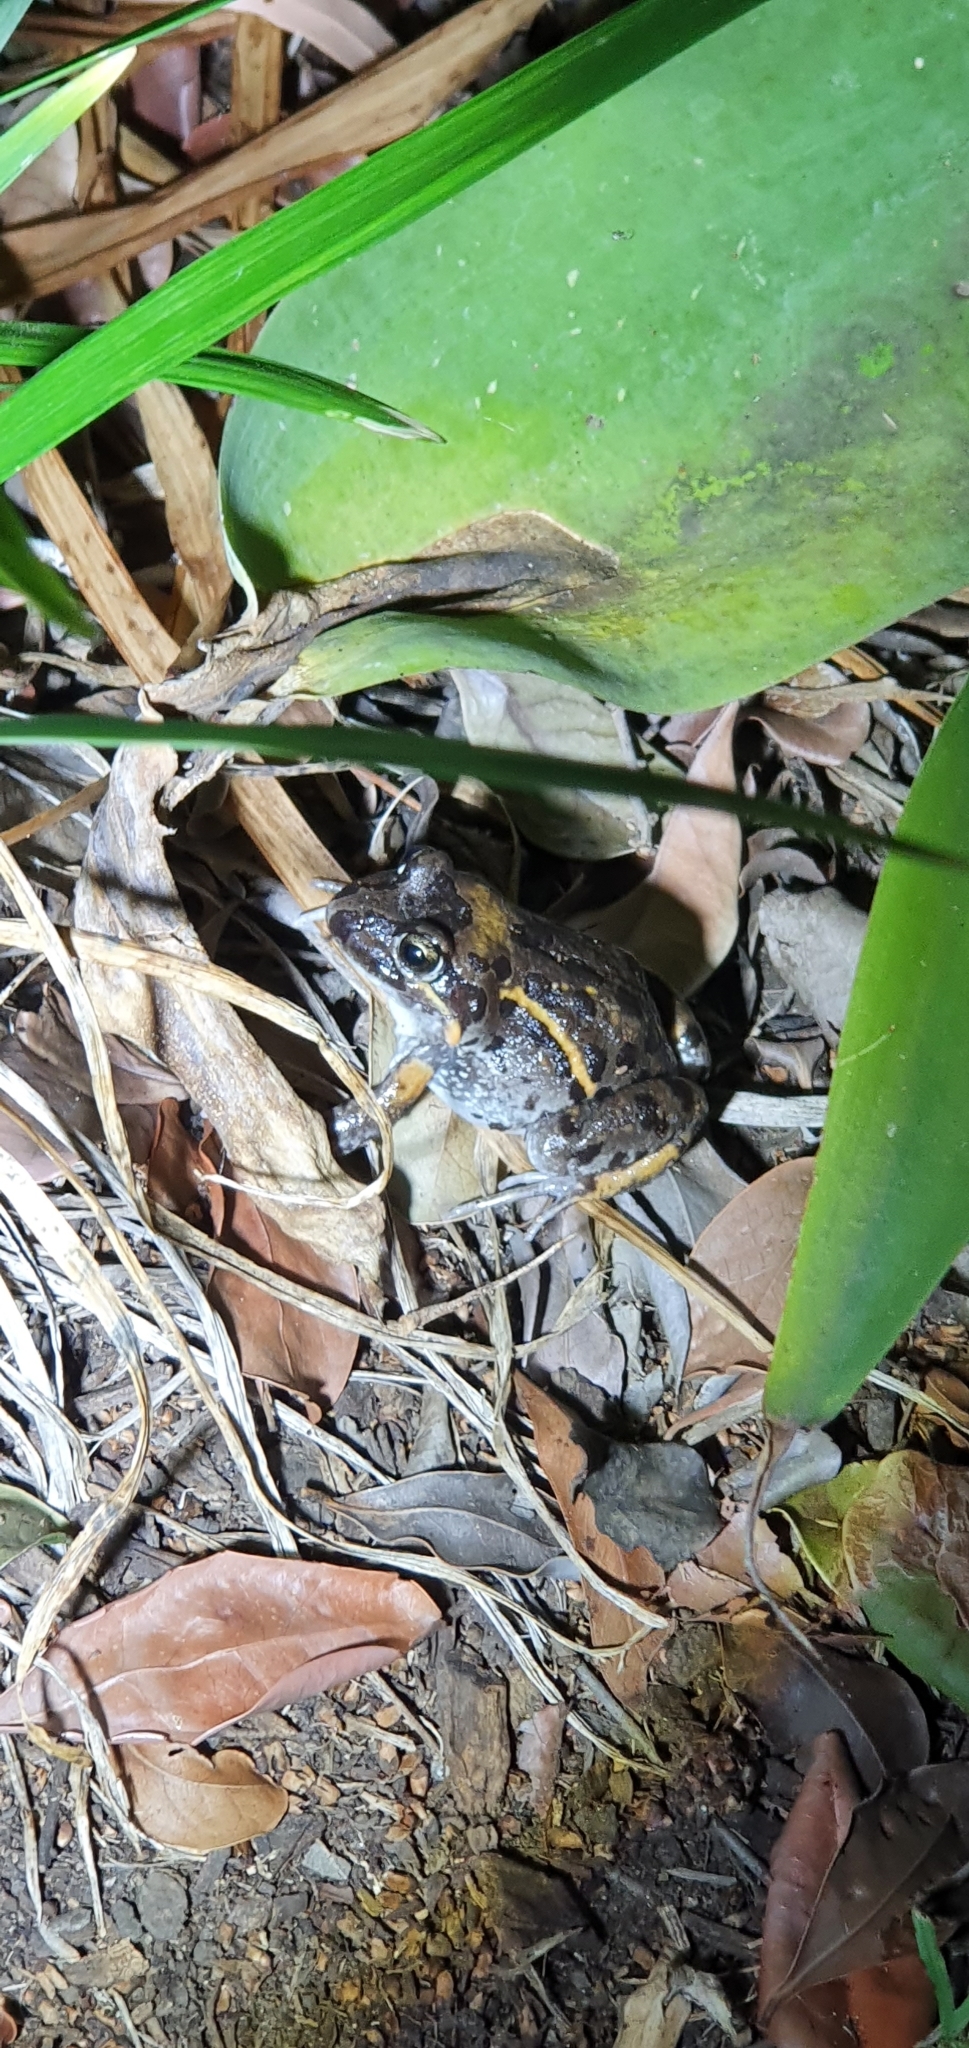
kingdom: Animalia
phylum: Chordata
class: Amphibia
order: Anura
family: Limnodynastidae
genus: Limnodynastes
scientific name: Limnodynastes salmini
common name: Salmon-striped frog
